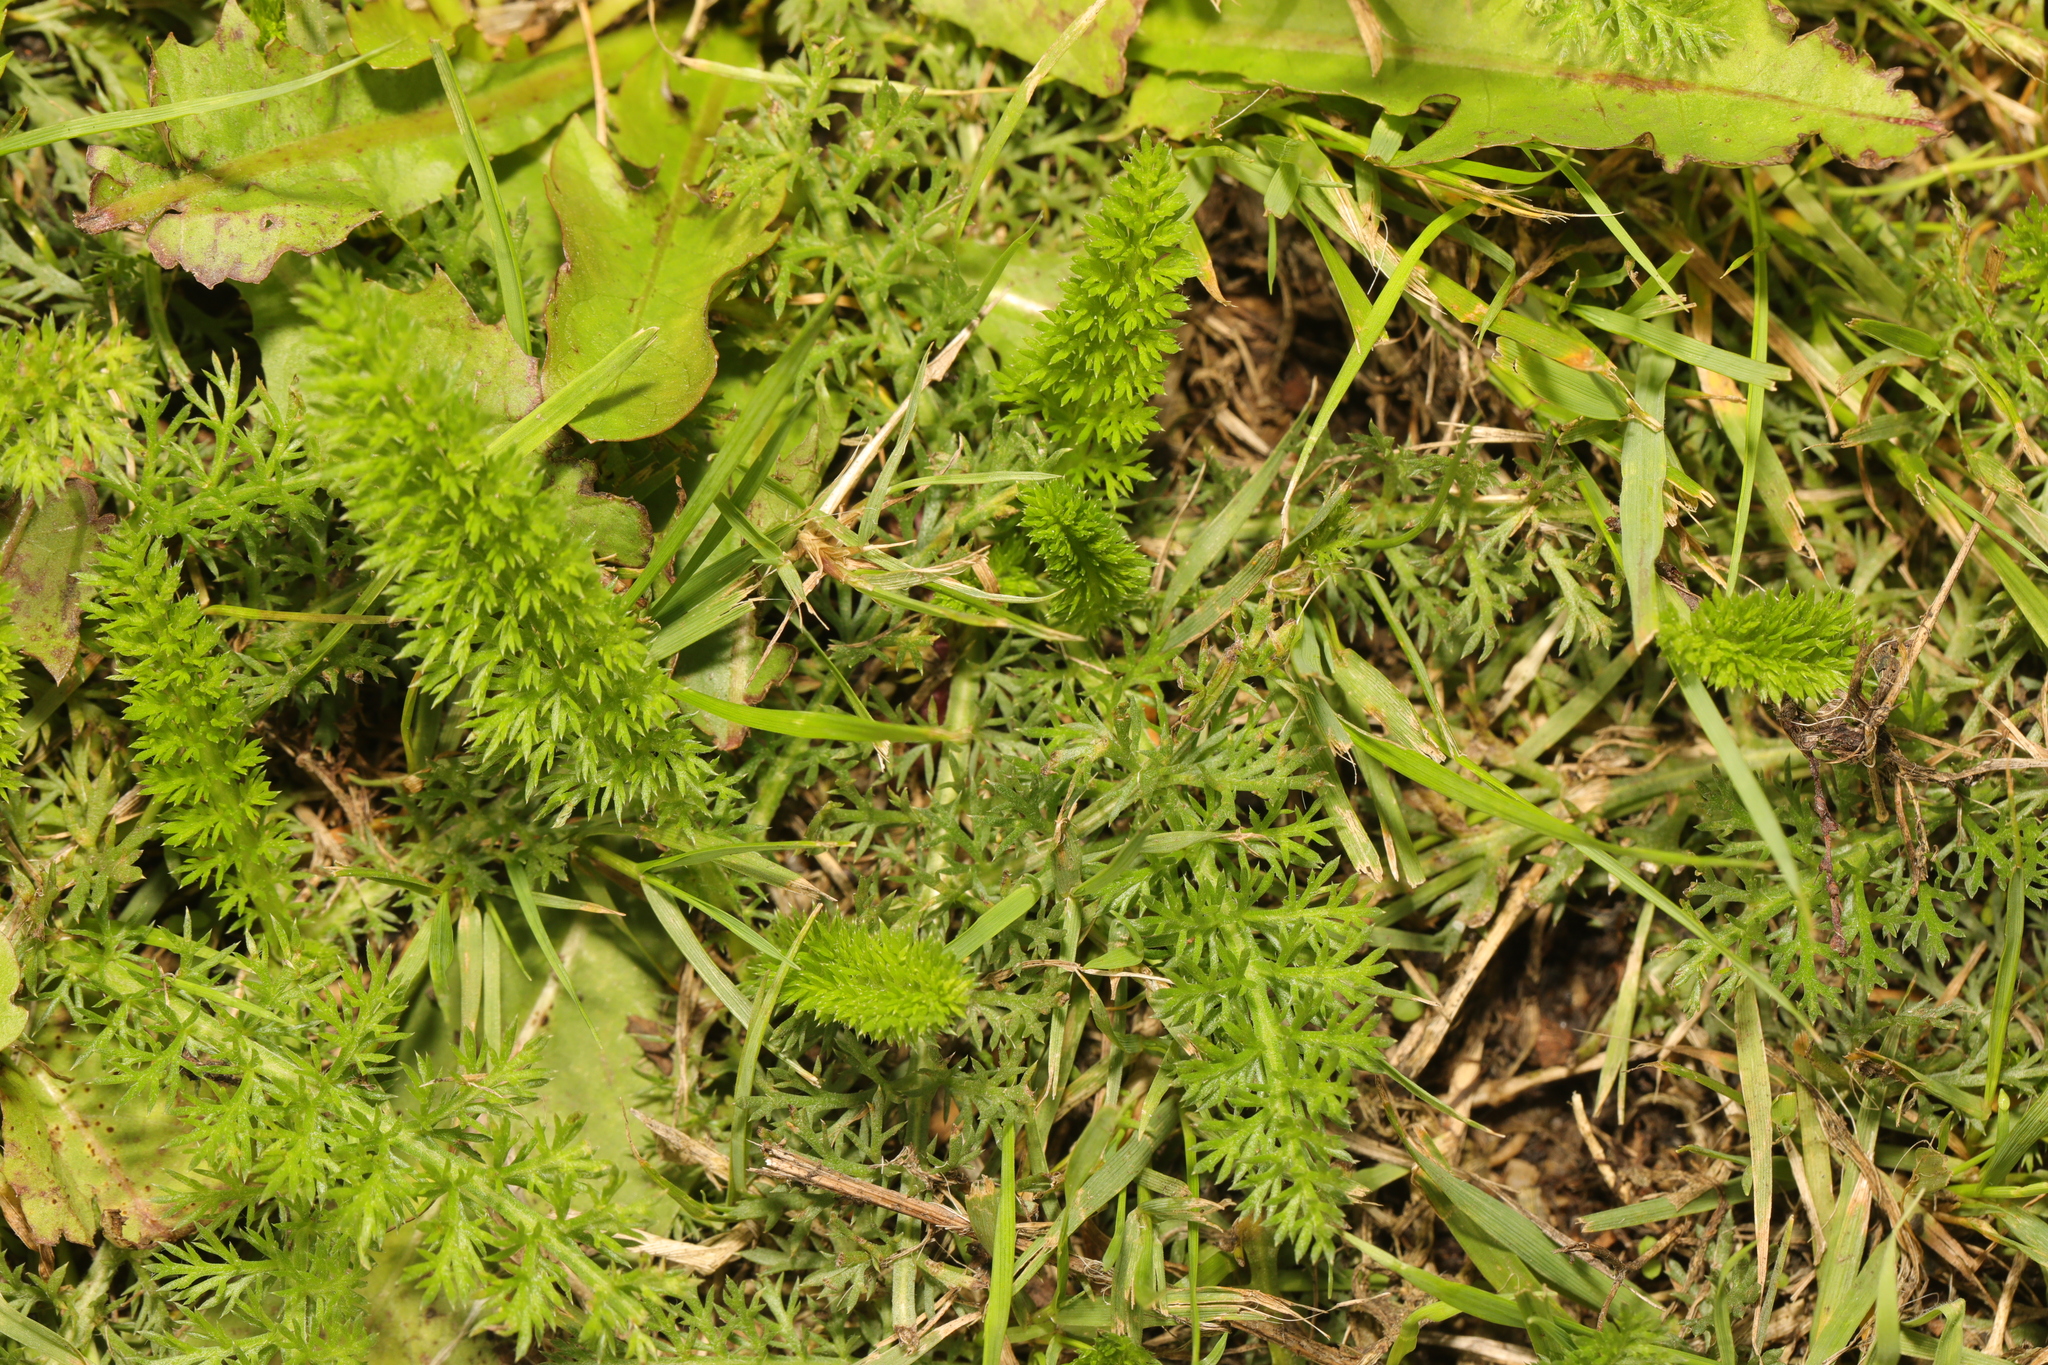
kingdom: Plantae
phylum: Tracheophyta
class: Magnoliopsida
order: Asterales
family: Asteraceae
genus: Achillea
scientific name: Achillea millefolium
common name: Yarrow
